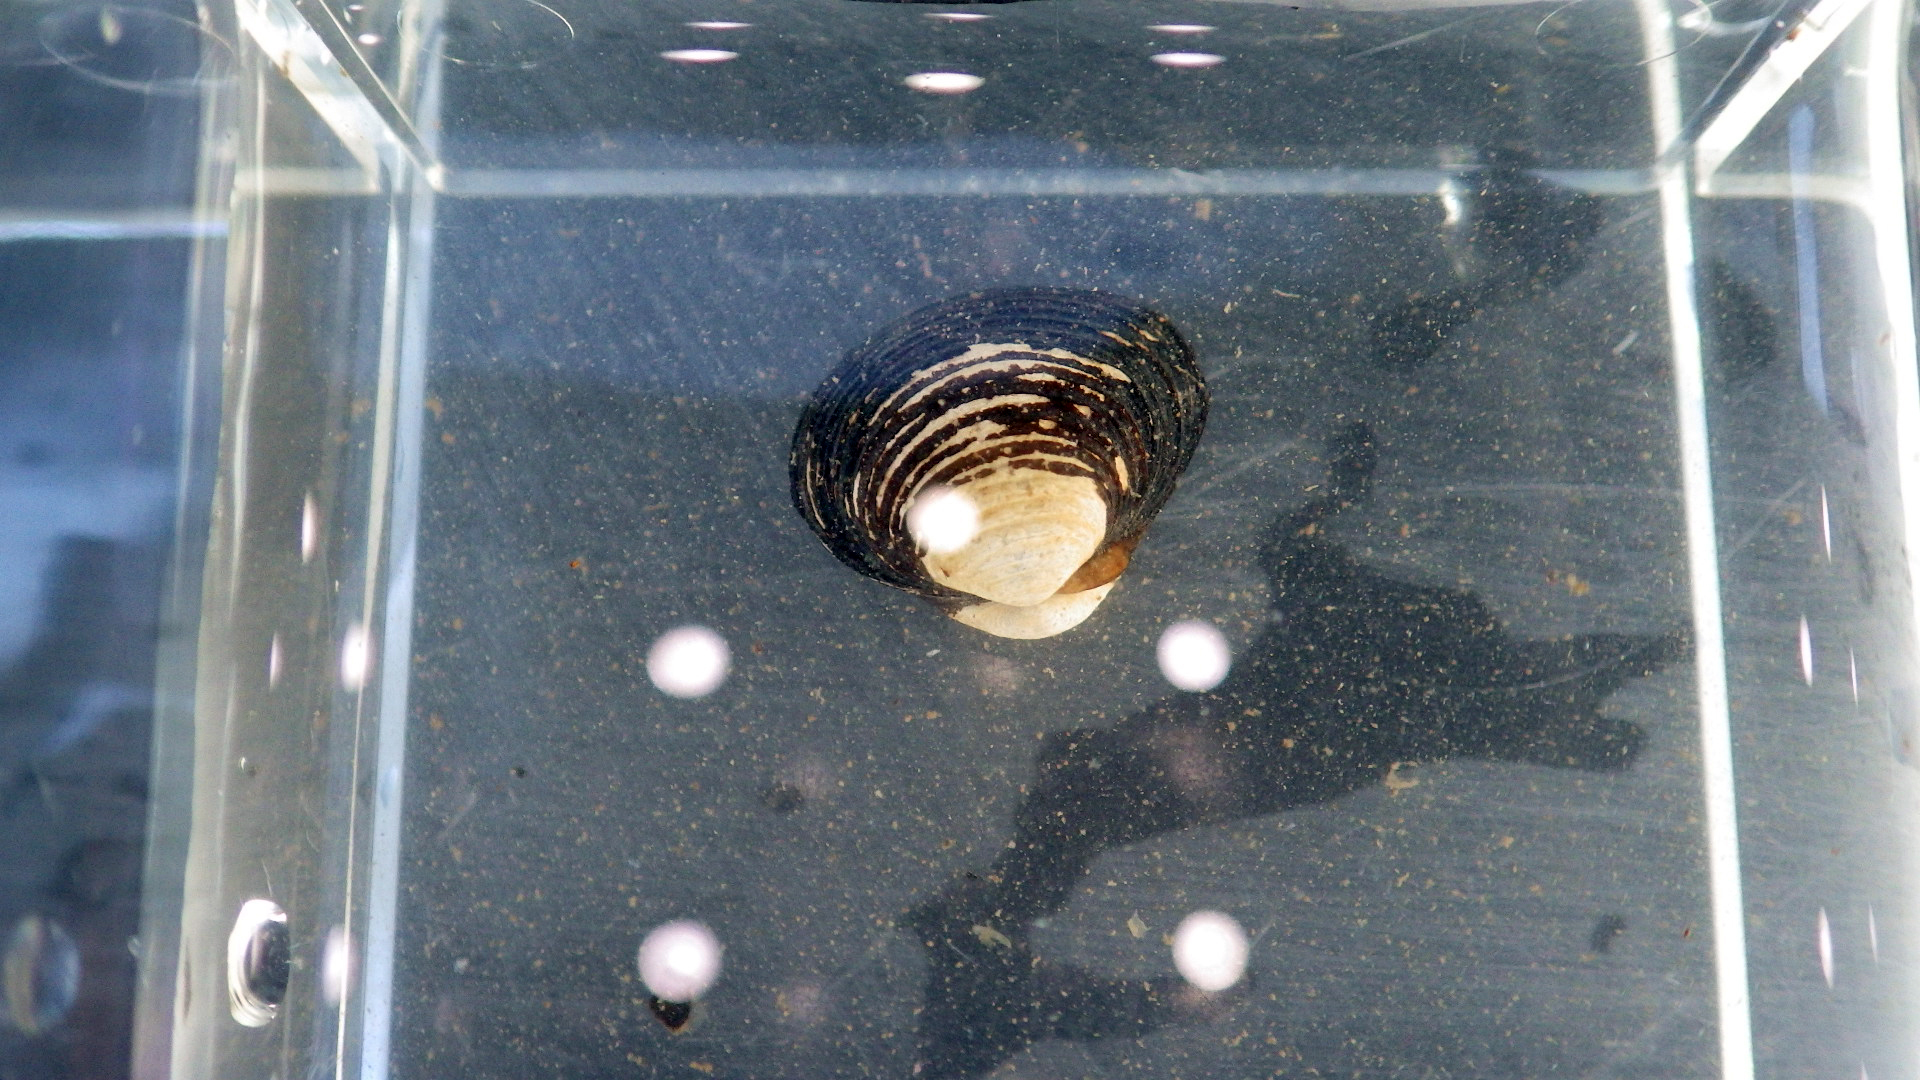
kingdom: Animalia
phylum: Mollusca
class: Bivalvia
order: Venerida
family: Cyrenidae
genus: Corbicula
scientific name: Corbicula fluminea
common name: Asian clam
